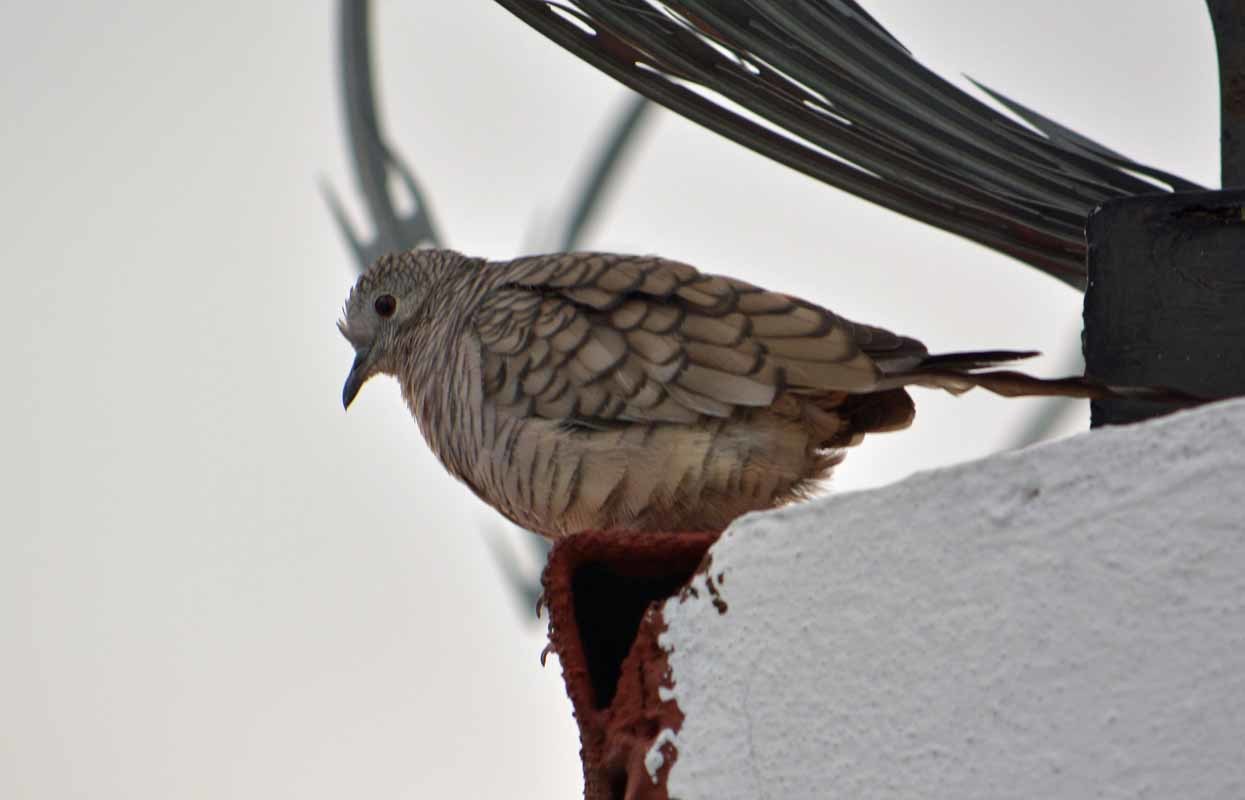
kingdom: Animalia
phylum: Chordata
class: Aves
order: Columbiformes
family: Columbidae
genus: Columbina
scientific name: Columbina inca
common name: Inca dove
